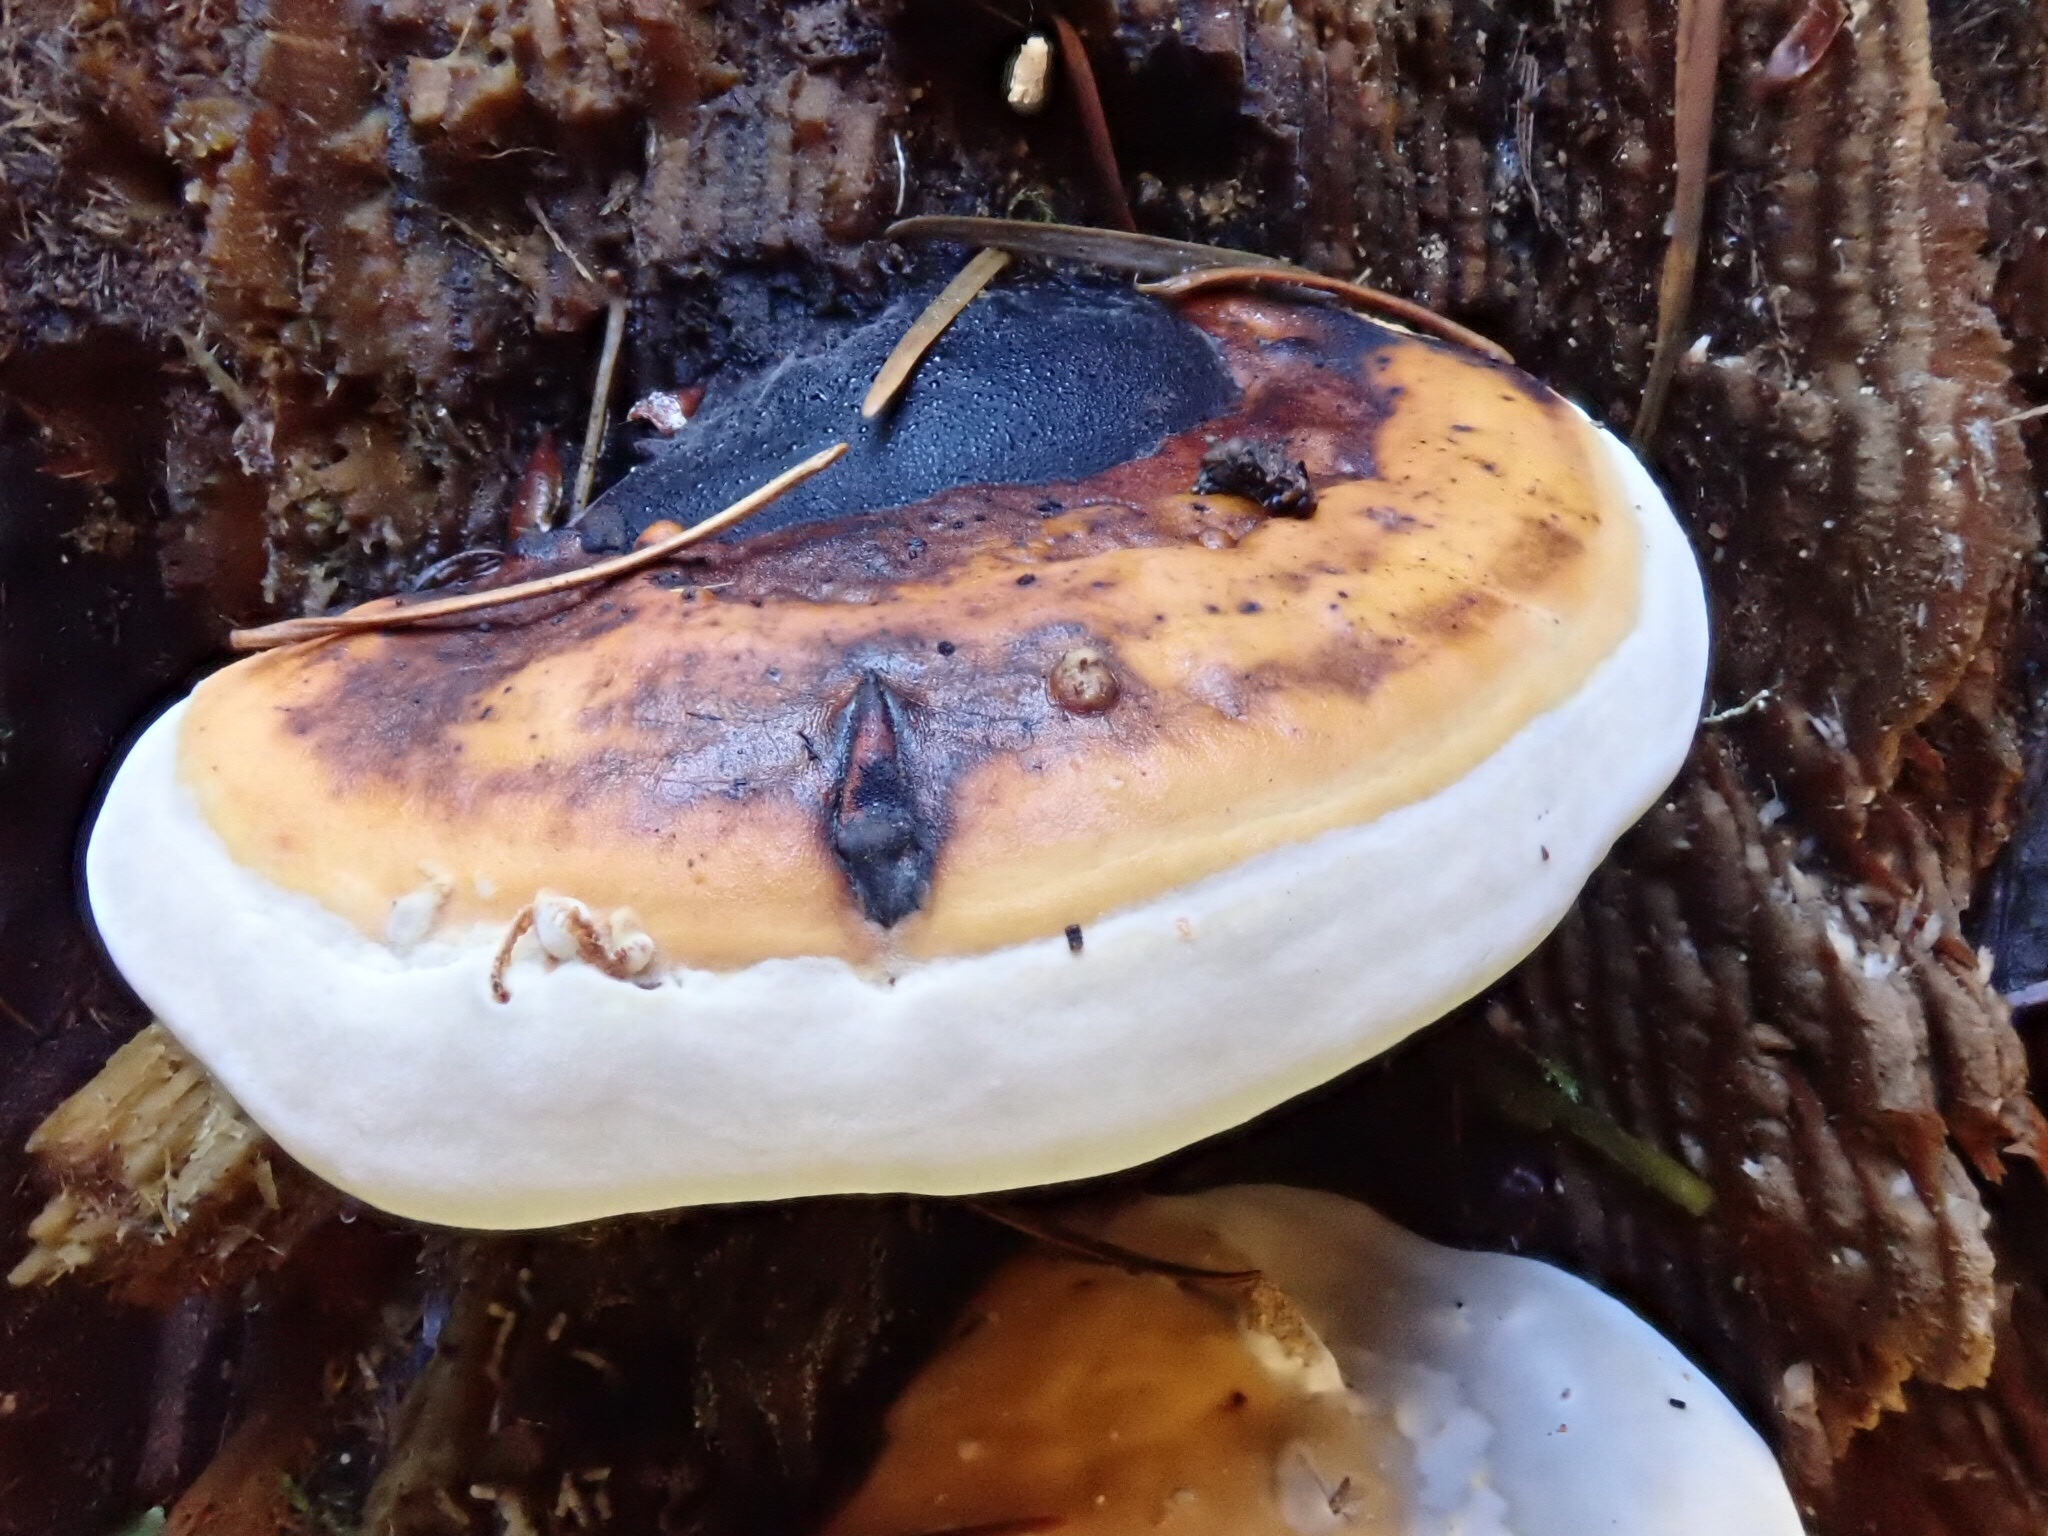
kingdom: Fungi
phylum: Basidiomycota
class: Agaricomycetes
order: Polyporales
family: Fomitopsidaceae
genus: Fomitopsis
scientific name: Fomitopsis mounceae
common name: Northern red belt
